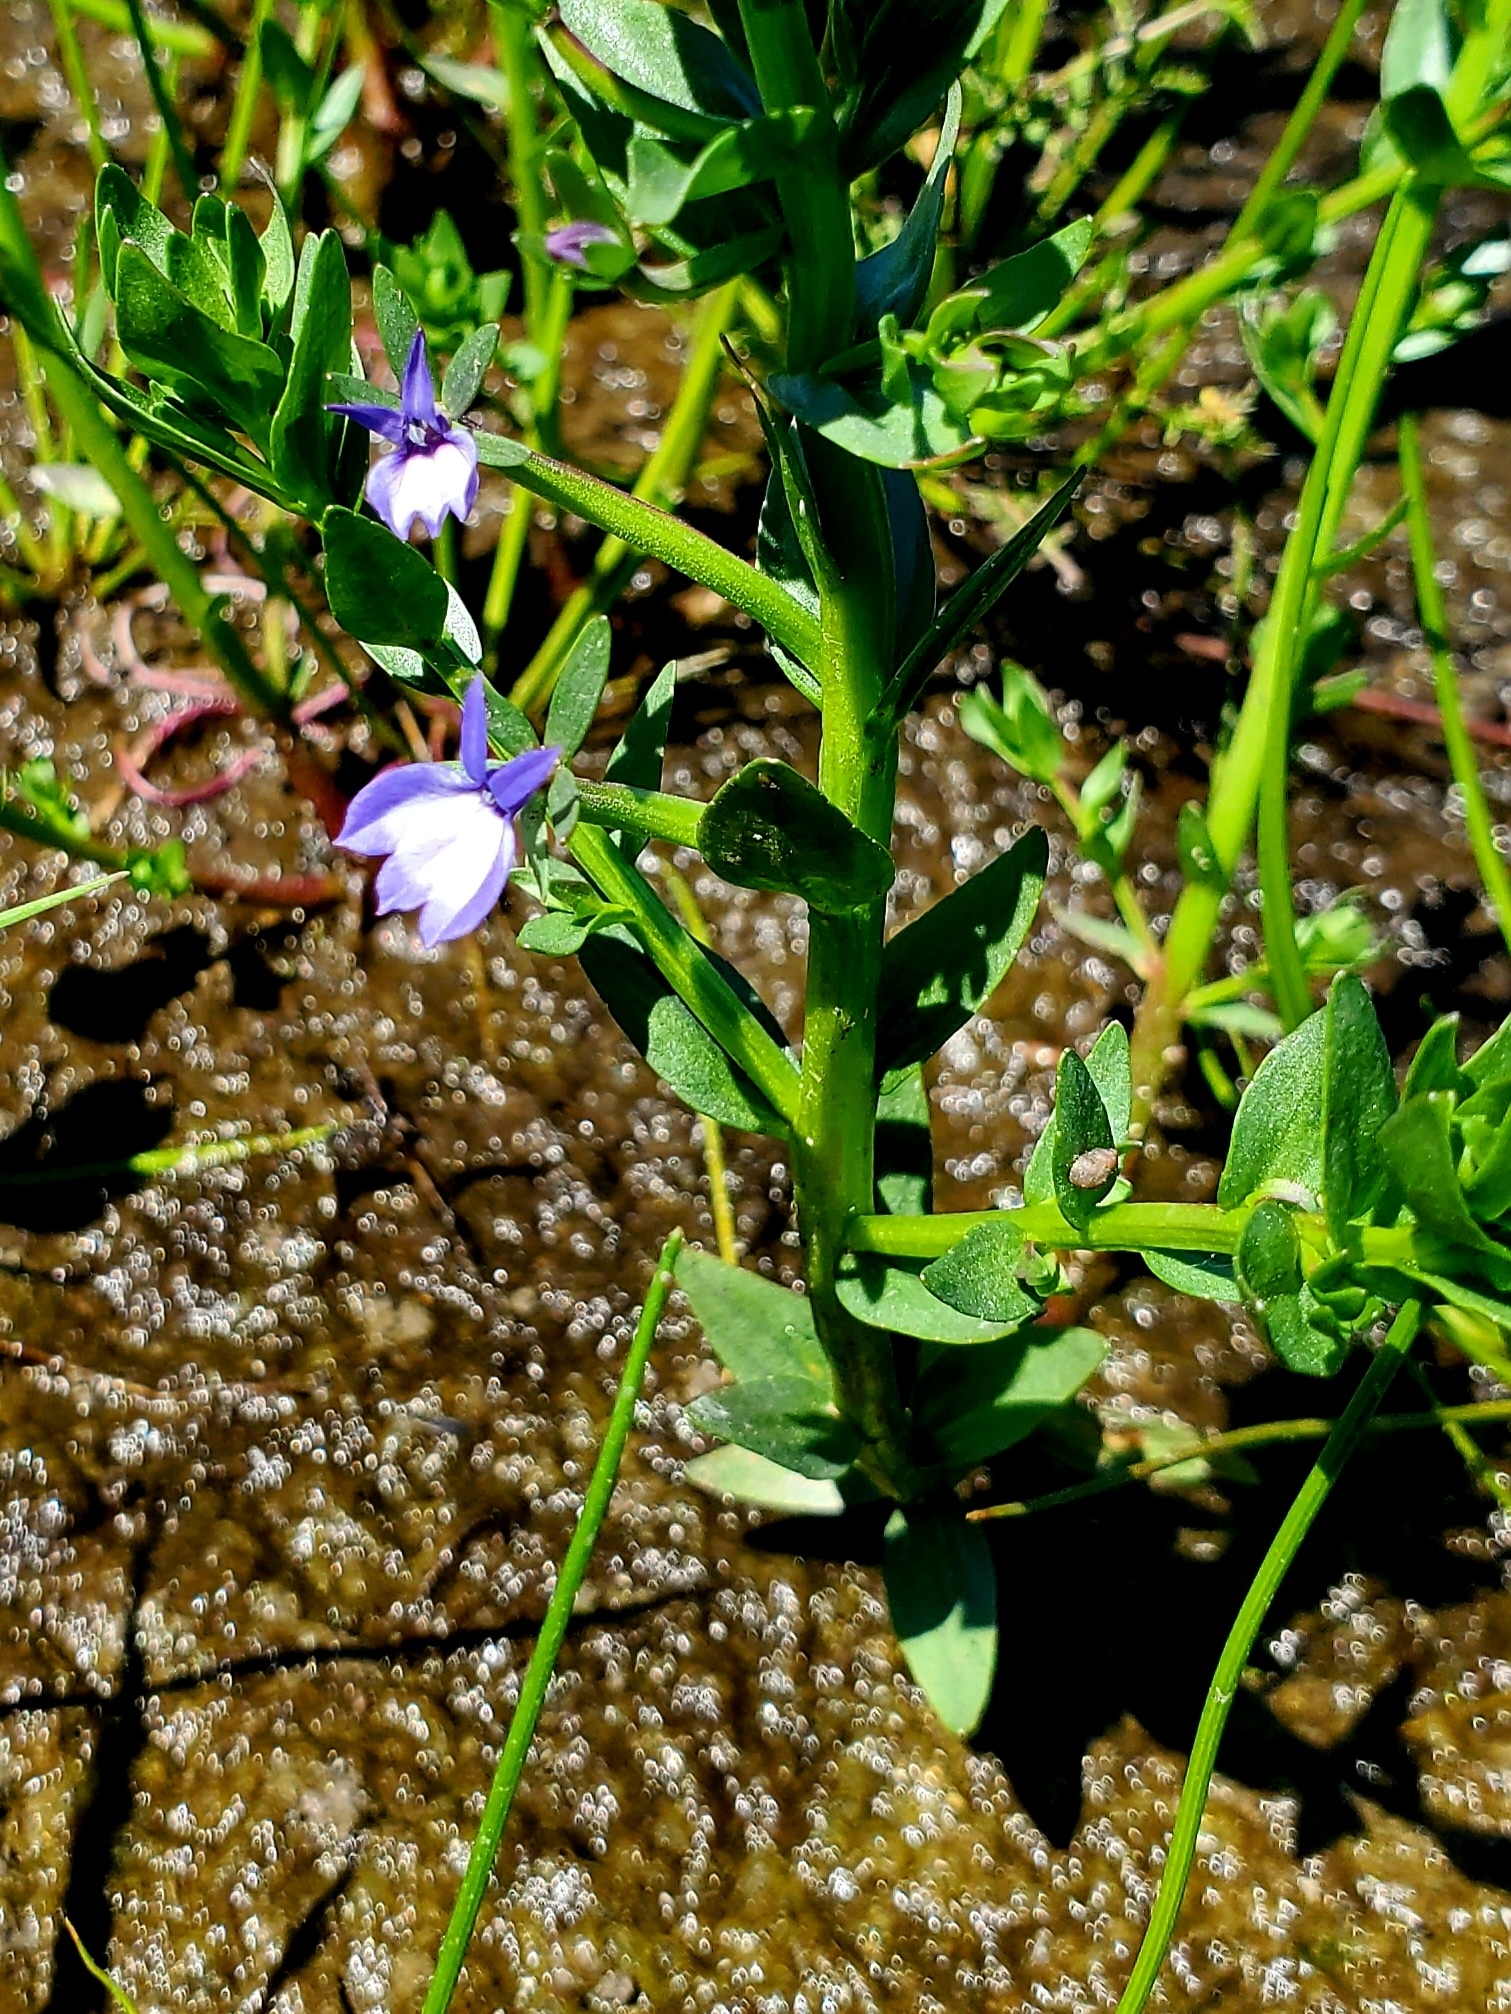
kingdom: Plantae
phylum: Tracheophyta
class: Magnoliopsida
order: Asterales
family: Campanulaceae
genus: Downingia
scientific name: Downingia elegans
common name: Californian lobelia
